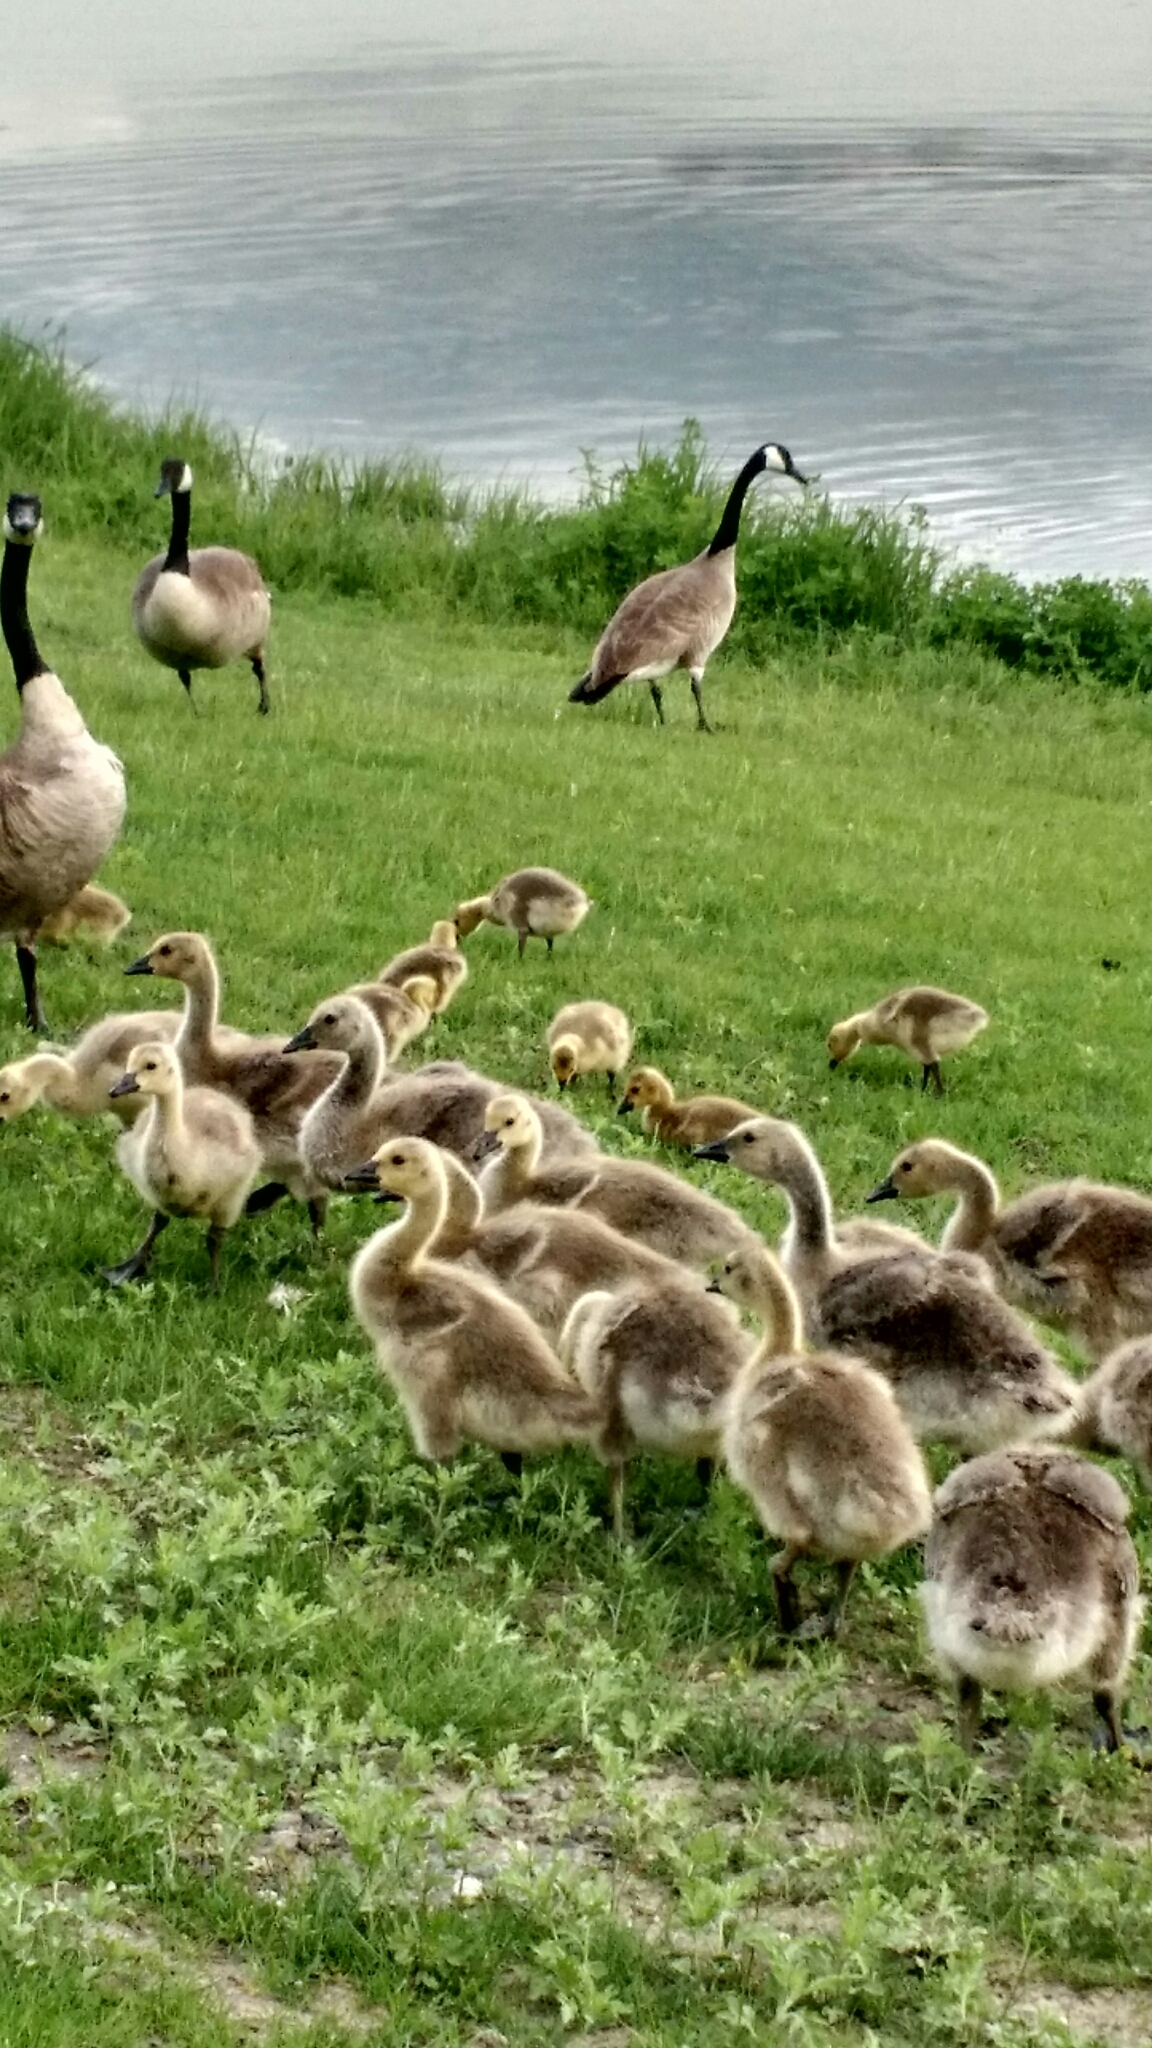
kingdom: Animalia
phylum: Chordata
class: Aves
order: Anseriformes
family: Anatidae
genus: Branta
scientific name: Branta canadensis
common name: Canada goose
